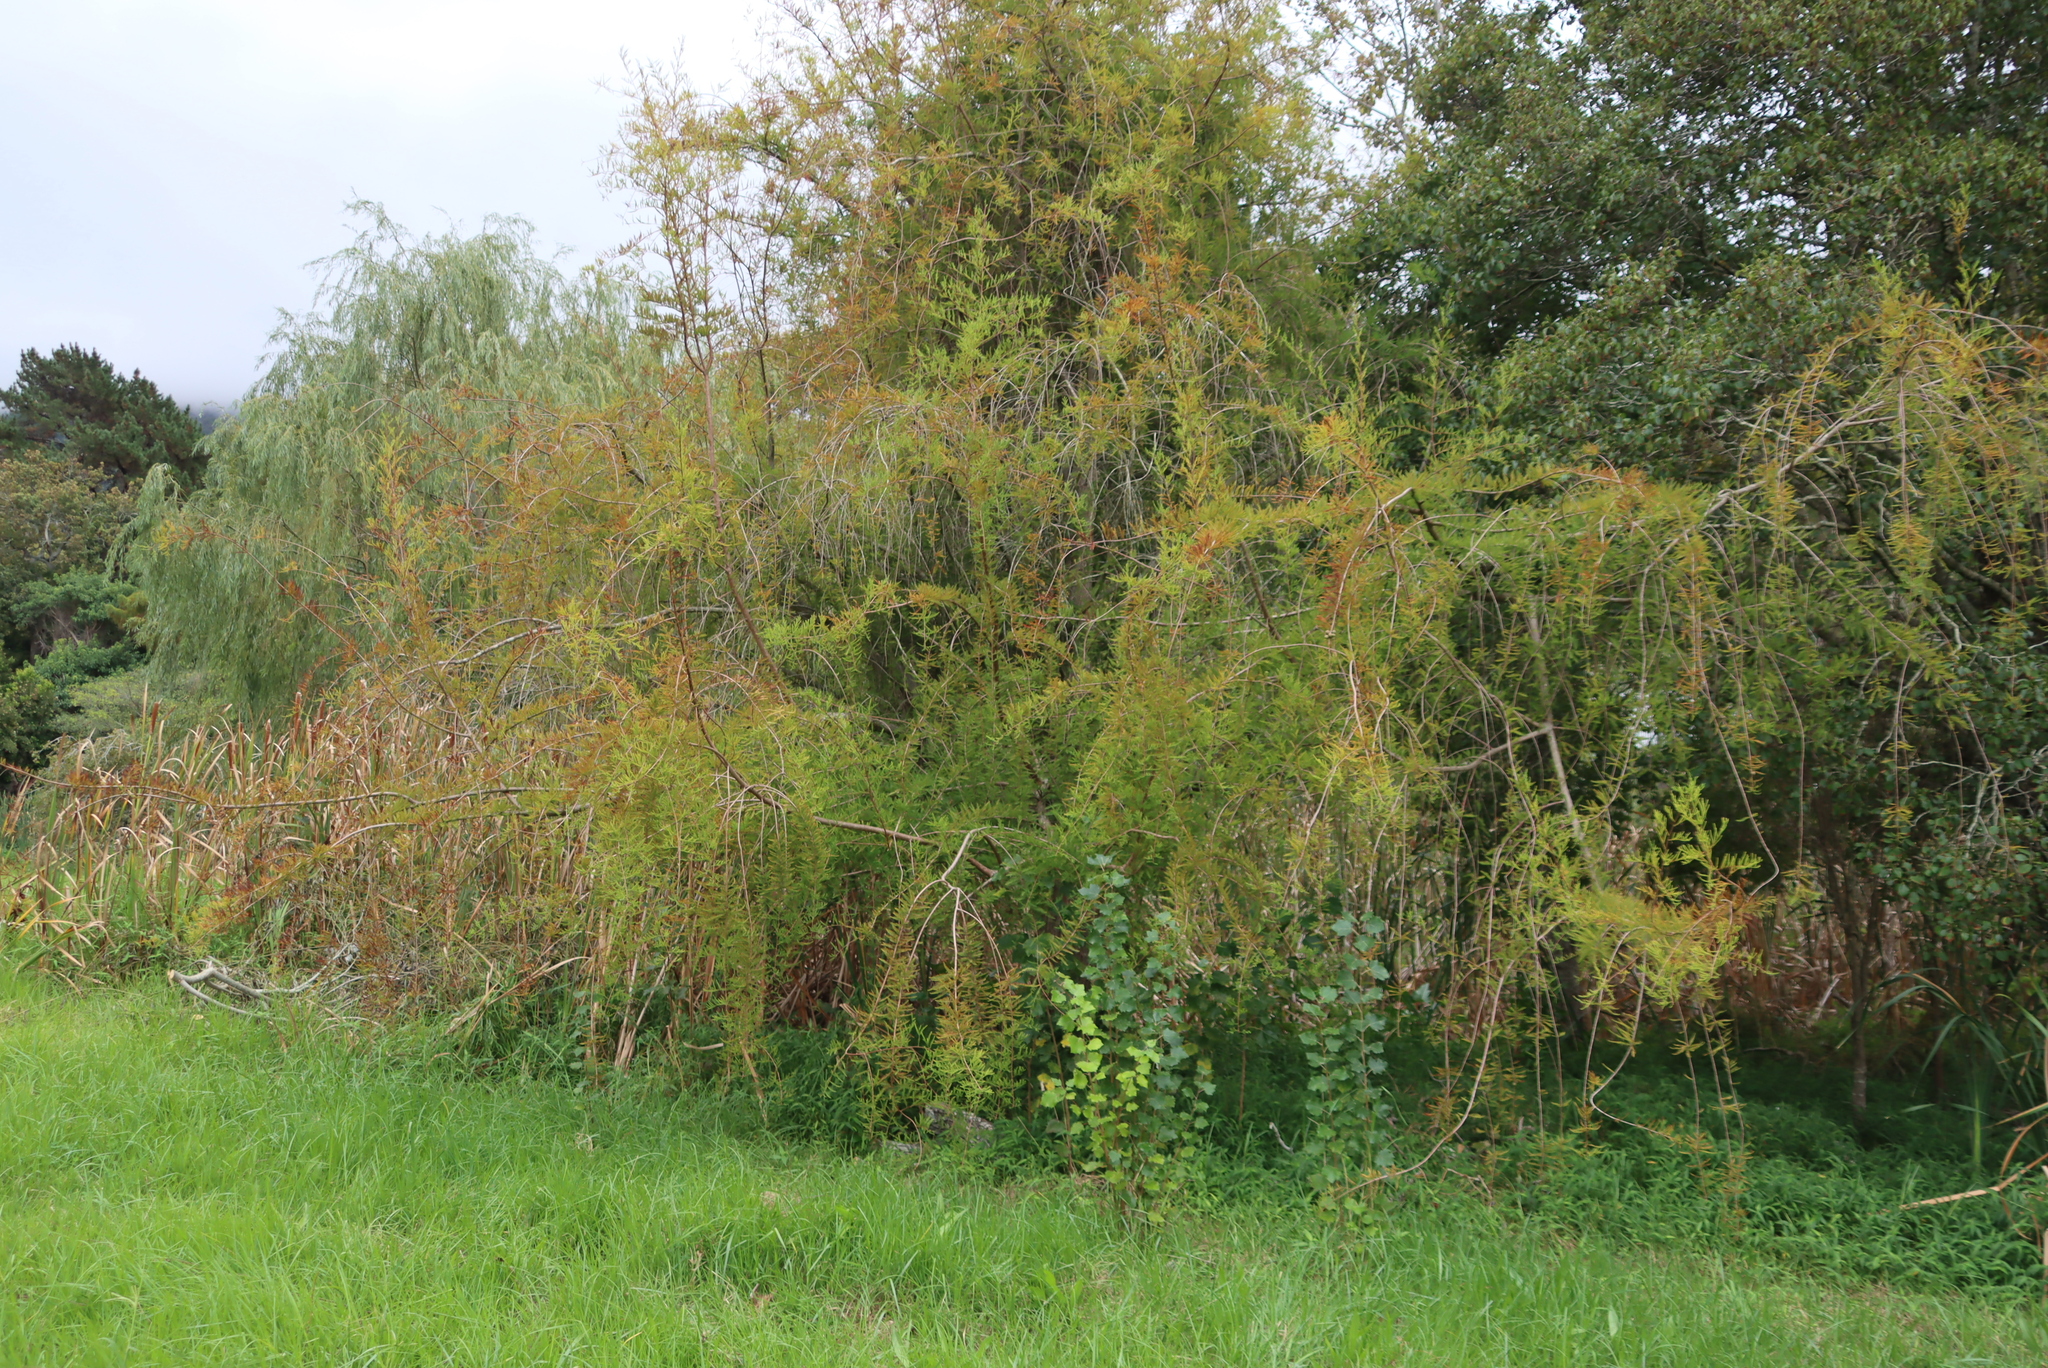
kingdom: Plantae
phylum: Tracheophyta
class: Pinopsida
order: Pinales
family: Cupressaceae
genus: Taxodium
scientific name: Taxodium distichum
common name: Bald cypress
